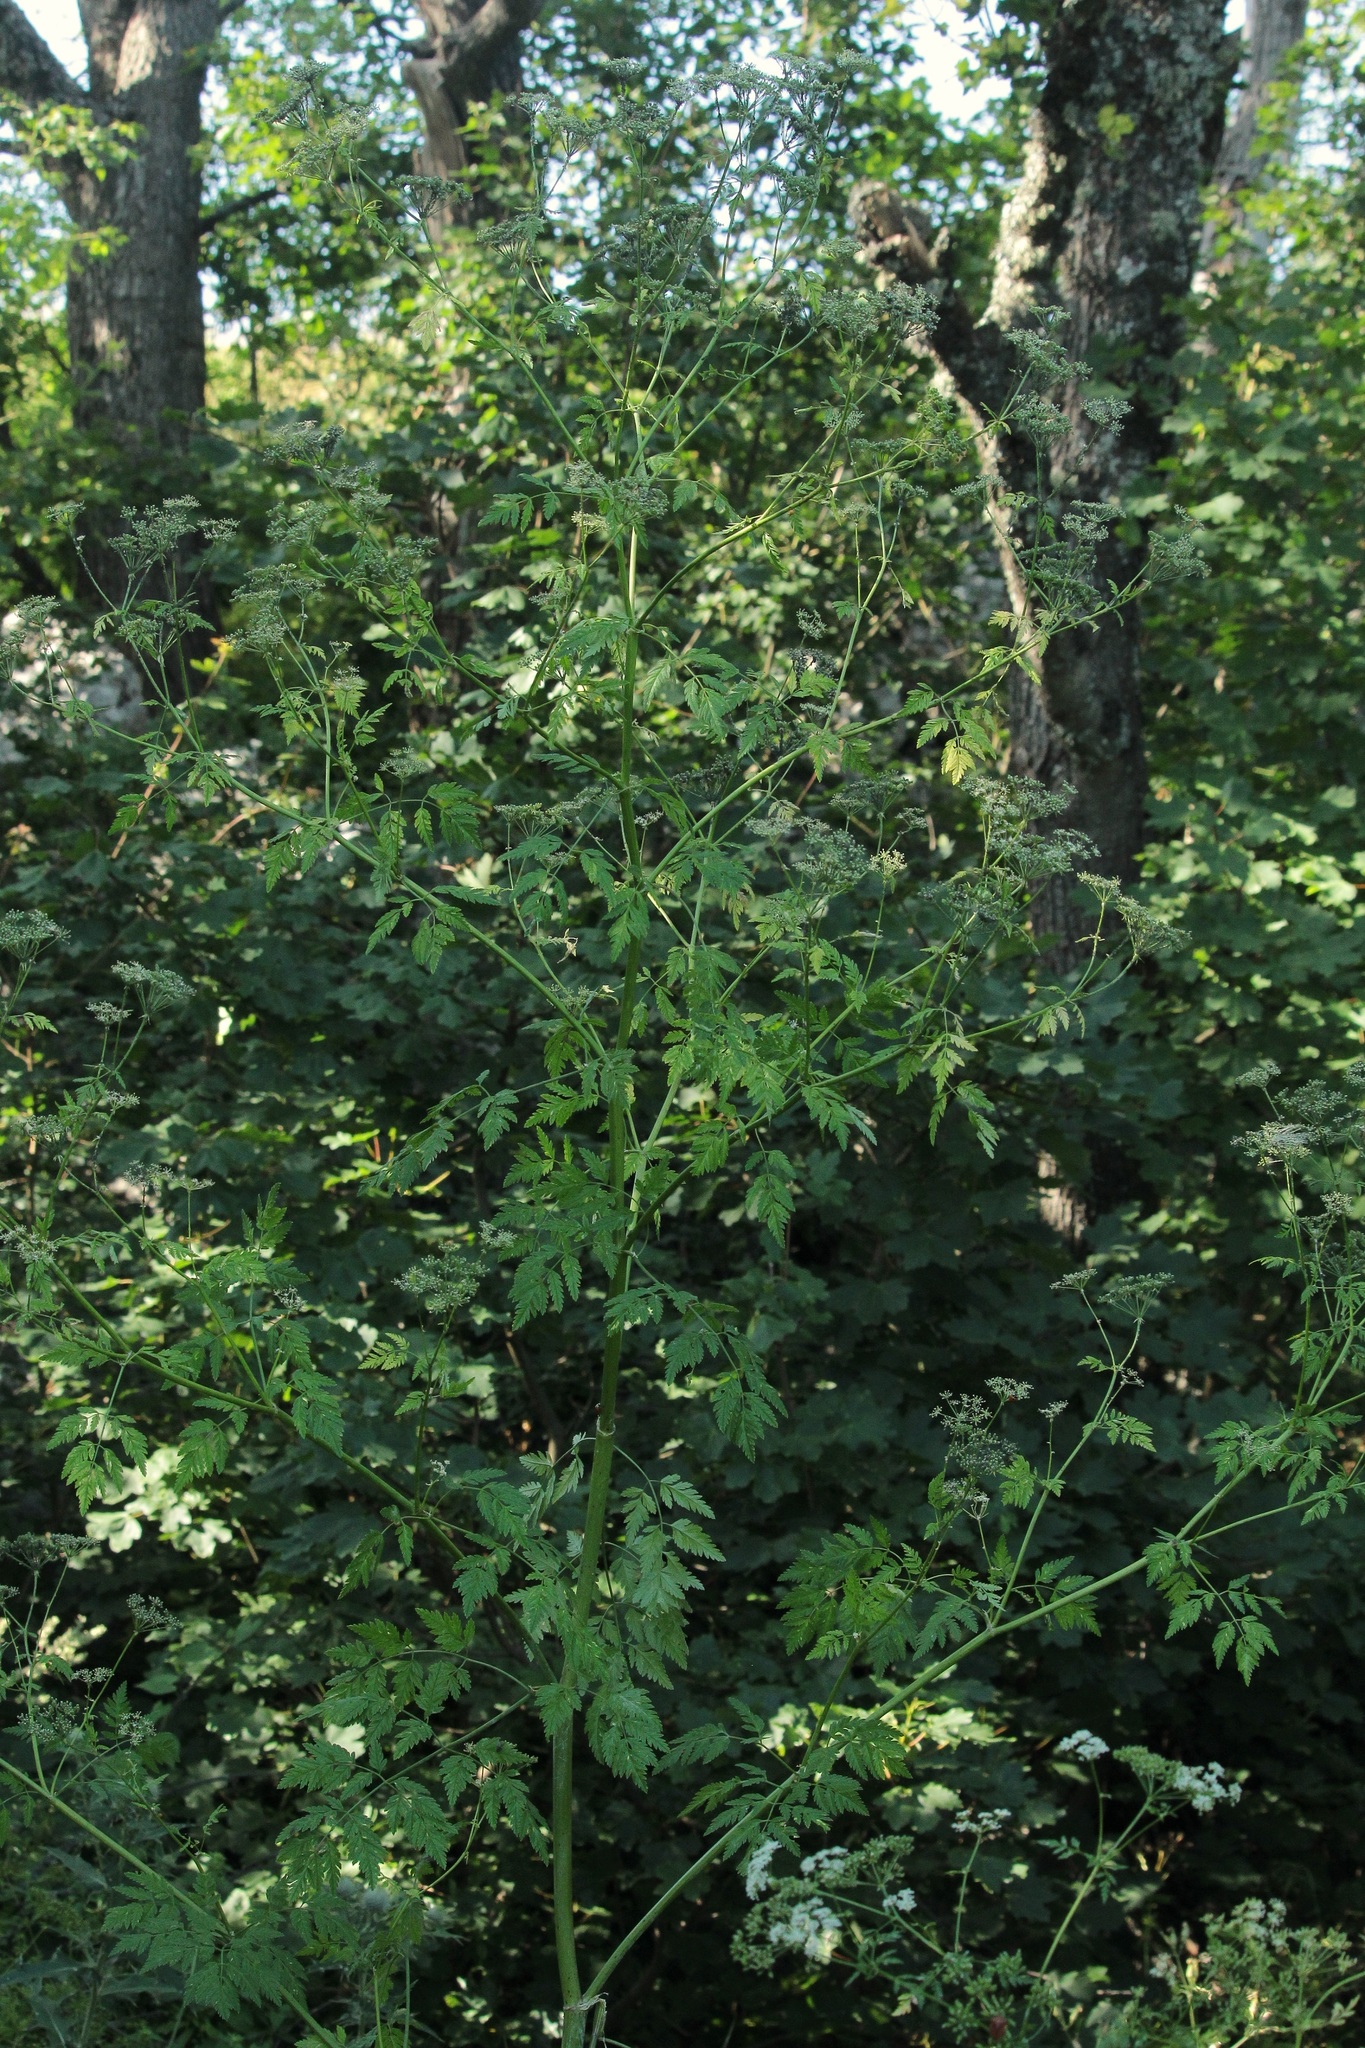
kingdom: Plantae
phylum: Tracheophyta
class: Magnoliopsida
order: Apiales
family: Apiaceae
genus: Conium
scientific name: Conium maculatum
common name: Hemlock
